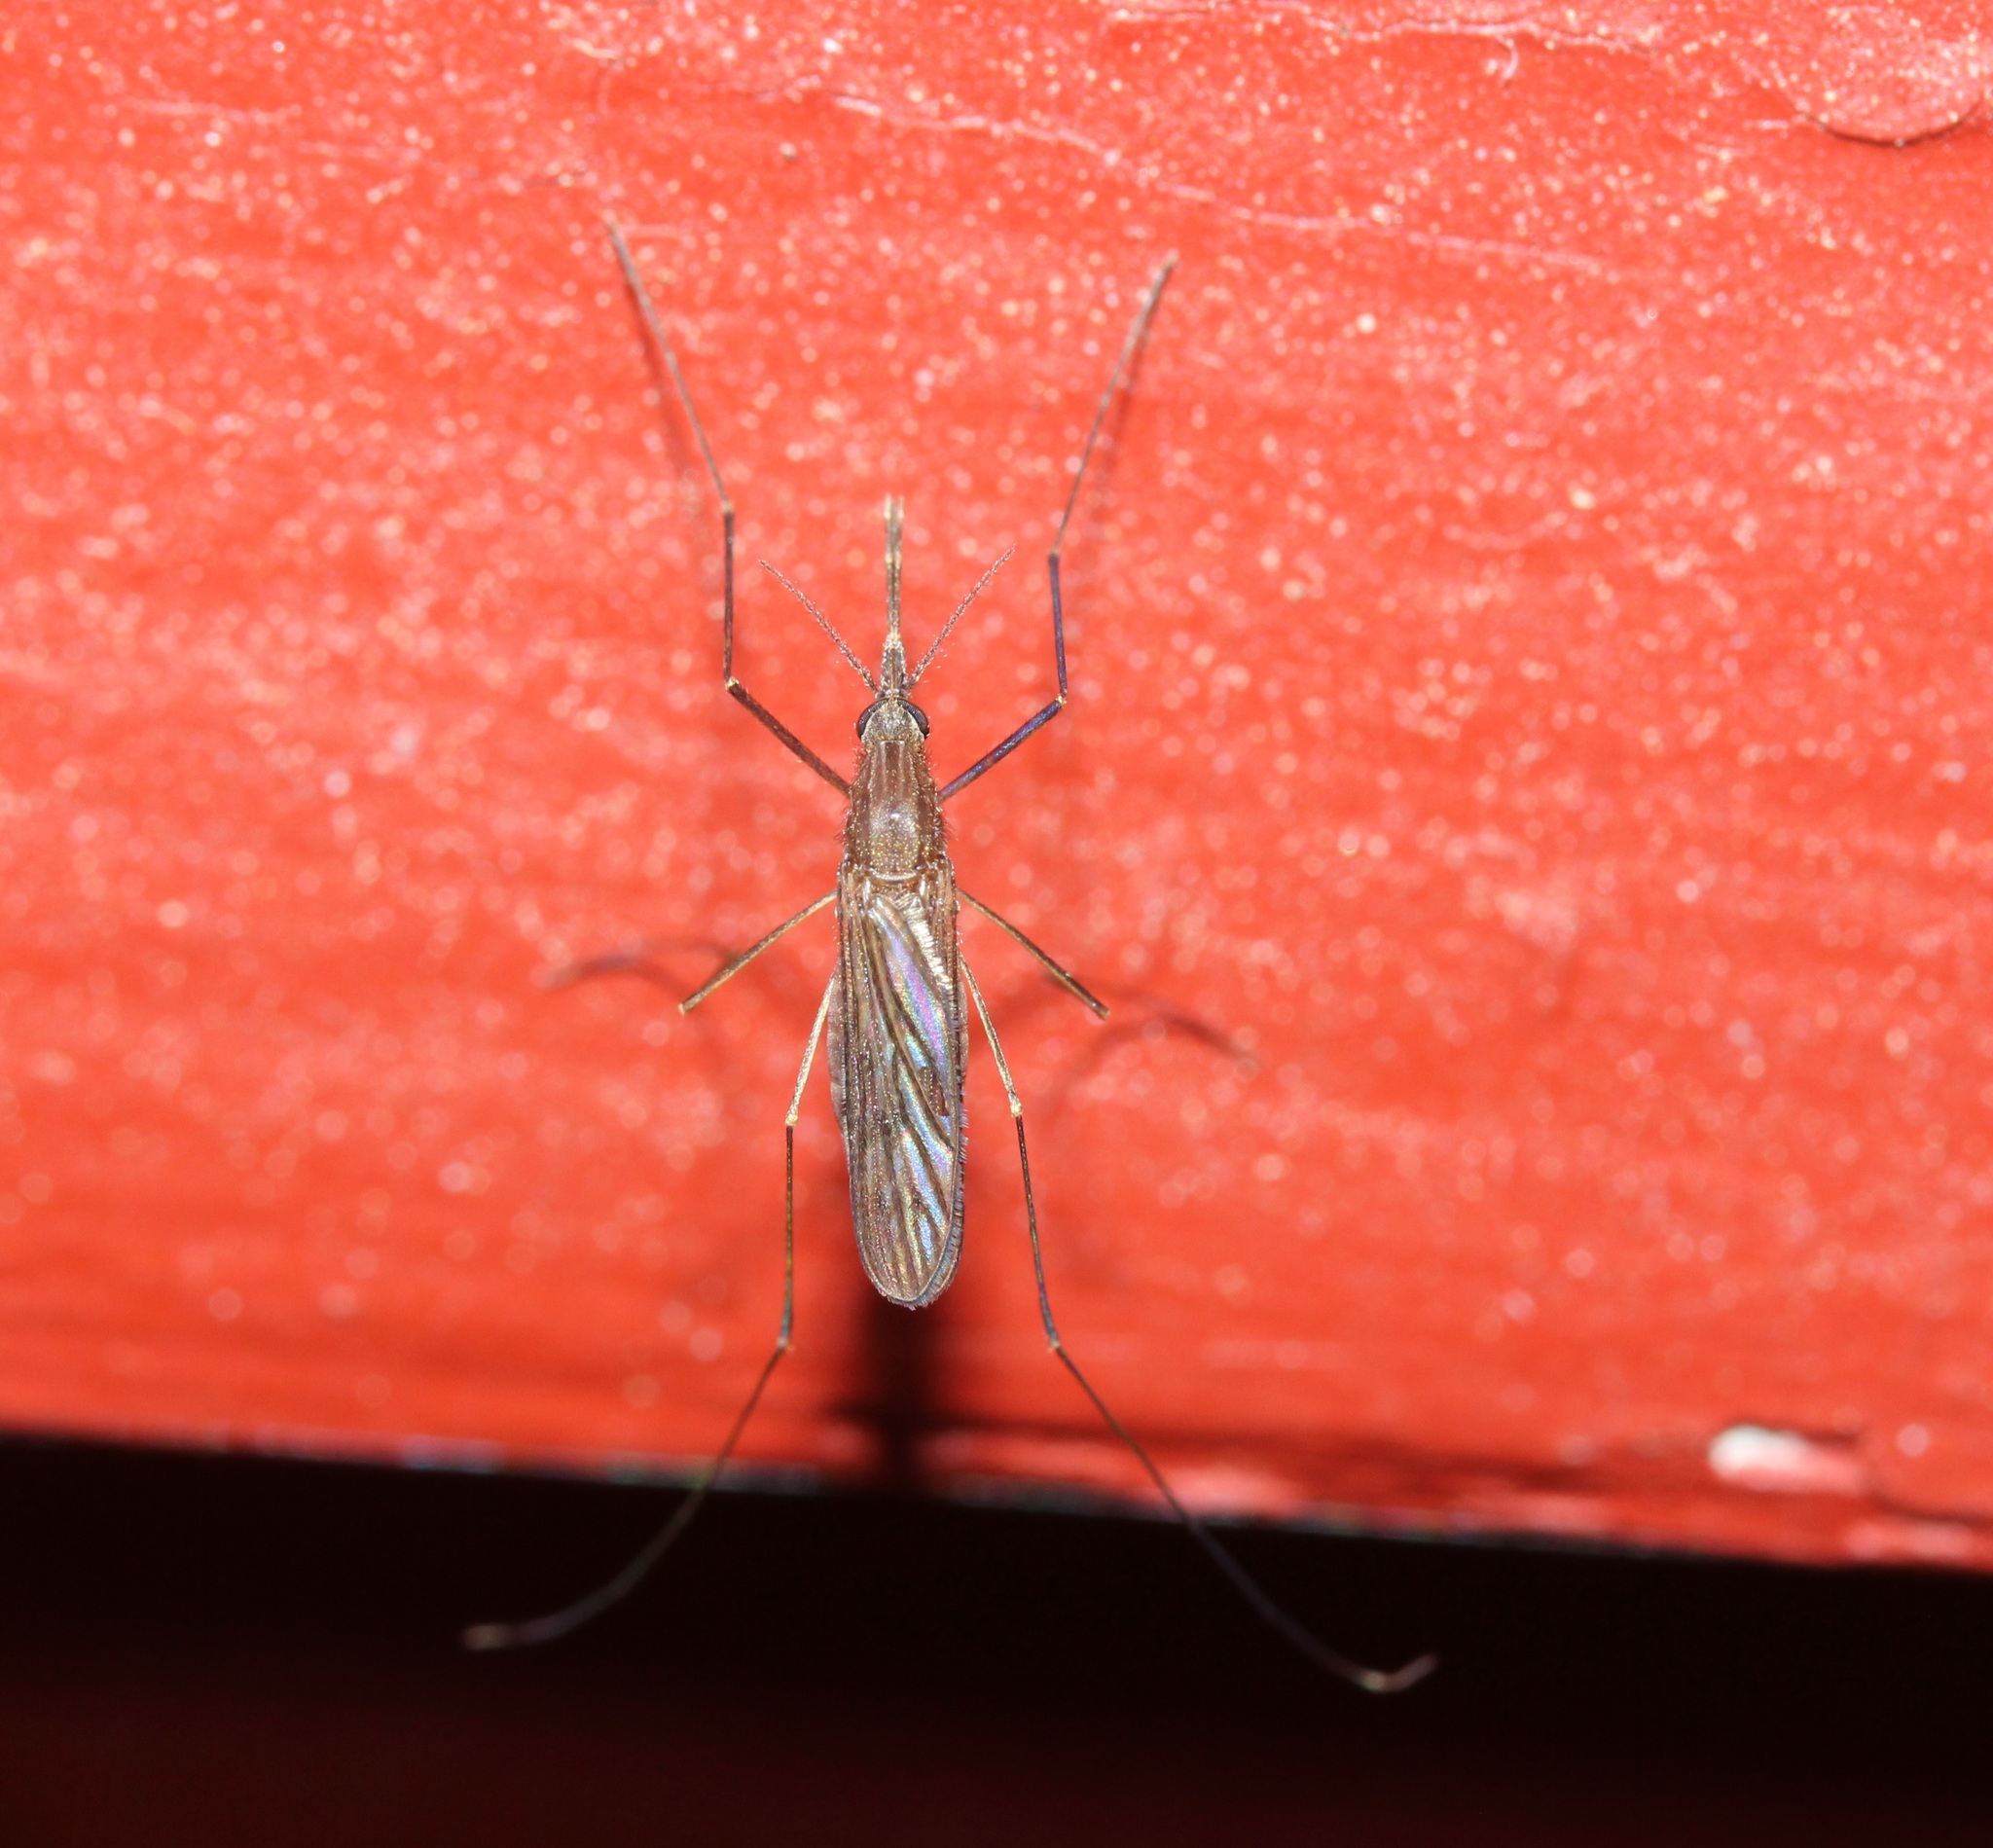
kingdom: Animalia
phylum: Arthropoda
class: Insecta
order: Diptera
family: Culicidae
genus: Anopheles
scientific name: Anopheles walkeri
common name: Walker's anopheles
